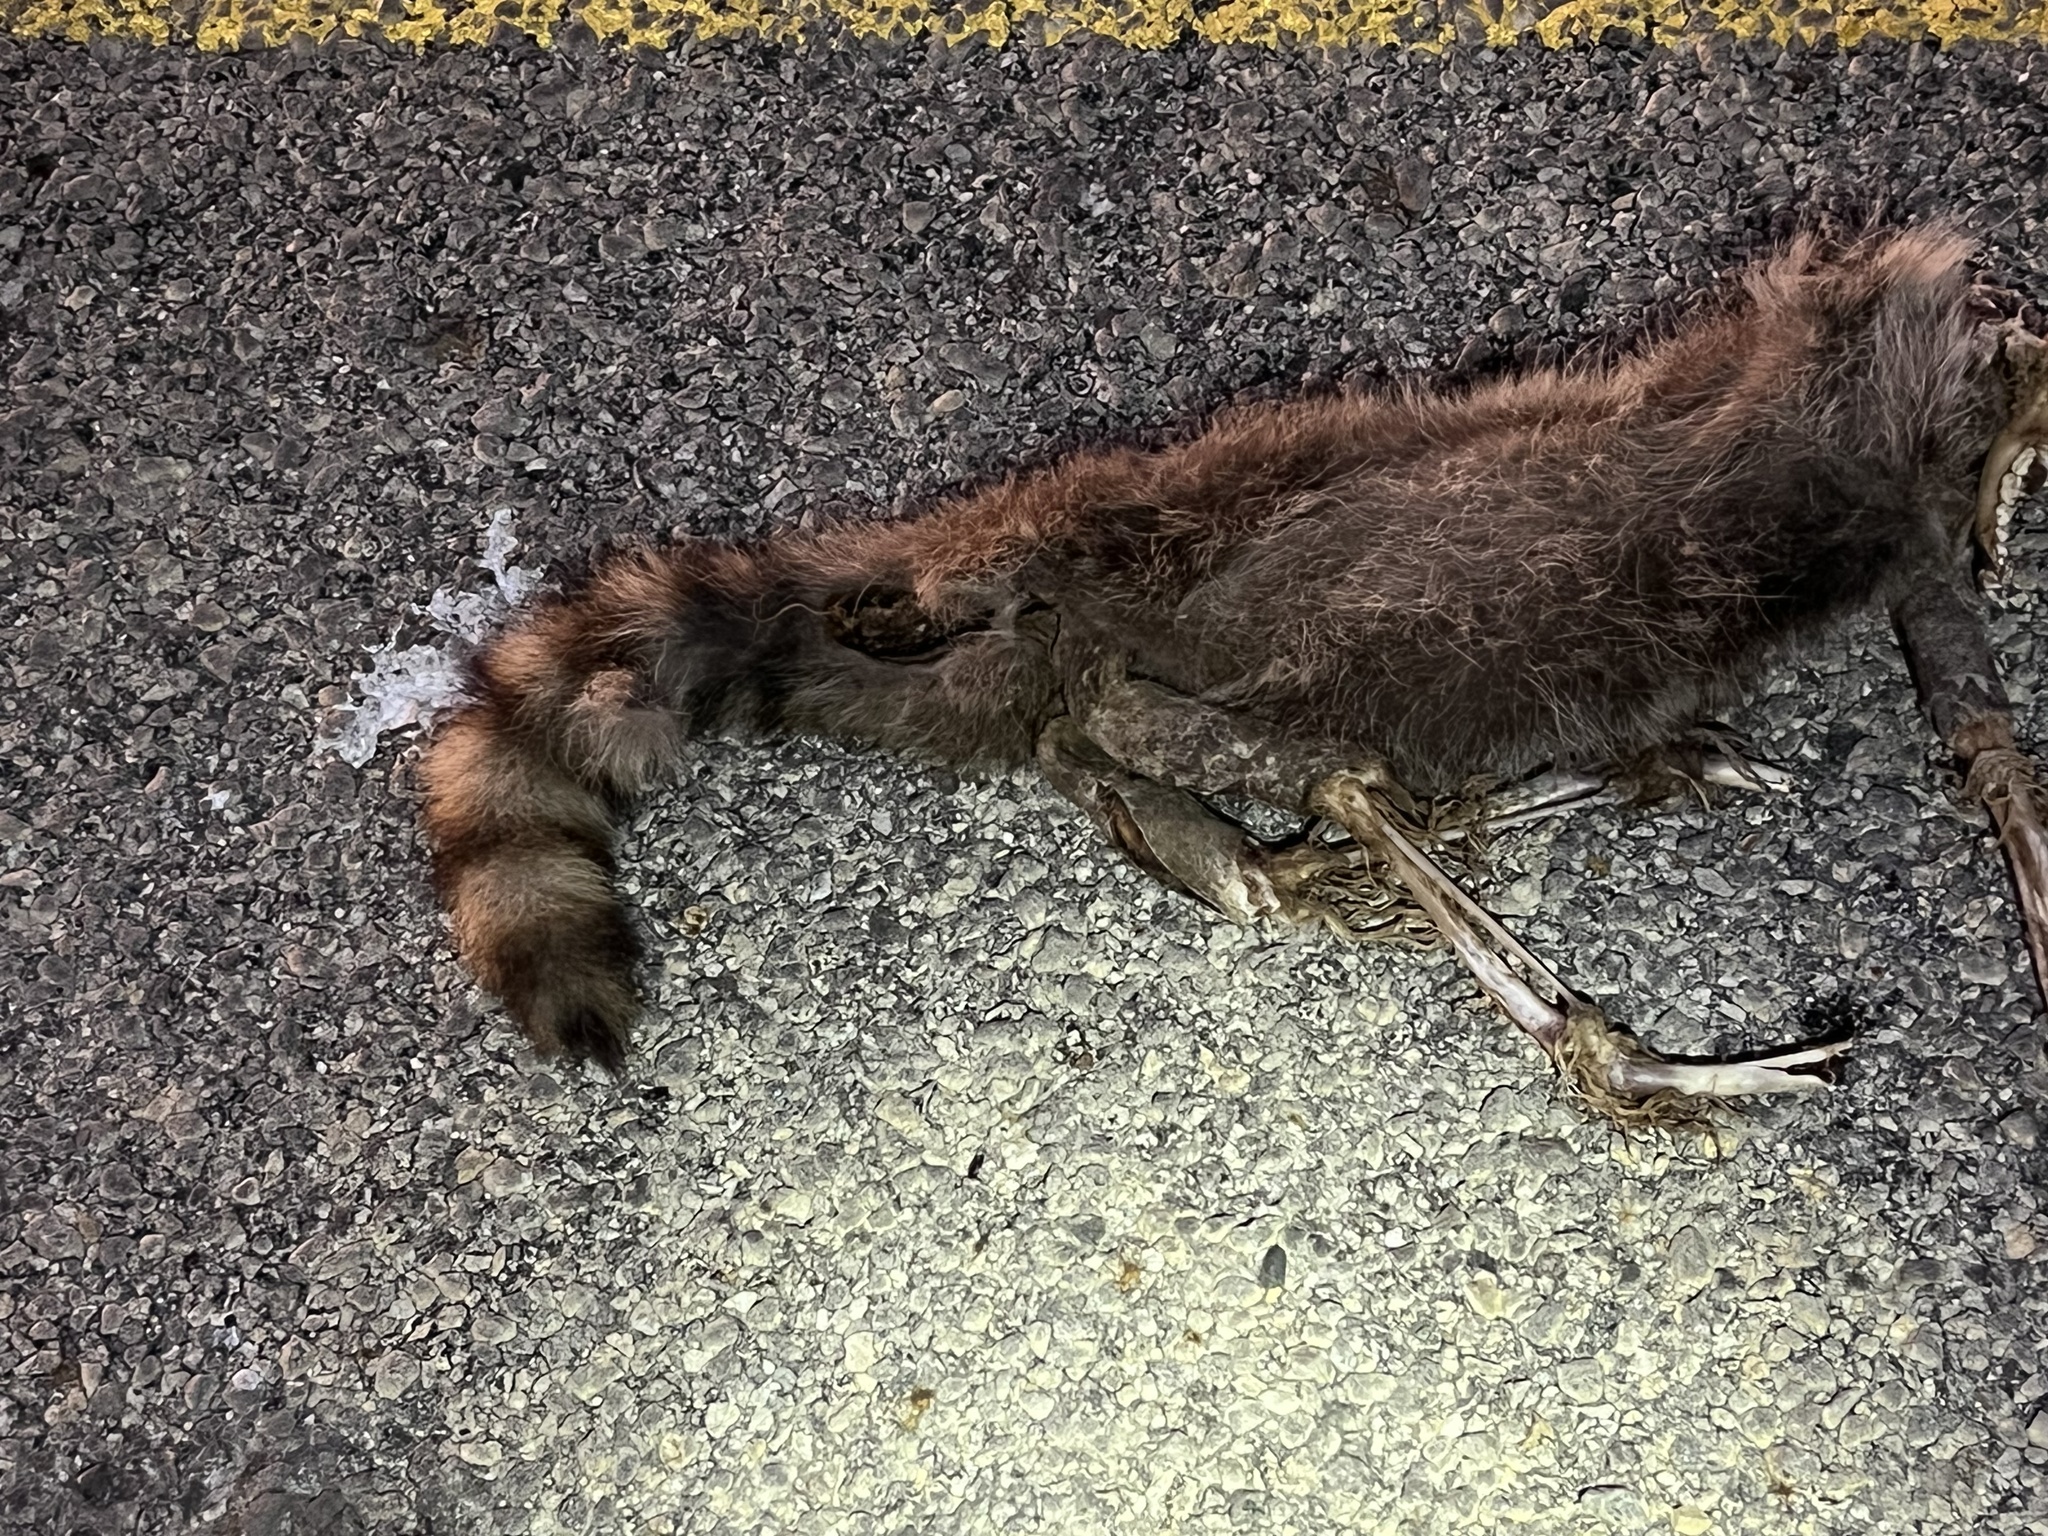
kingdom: Animalia
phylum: Chordata
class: Mammalia
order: Carnivora
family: Procyonidae
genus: Procyon
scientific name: Procyon lotor
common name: Raccoon
